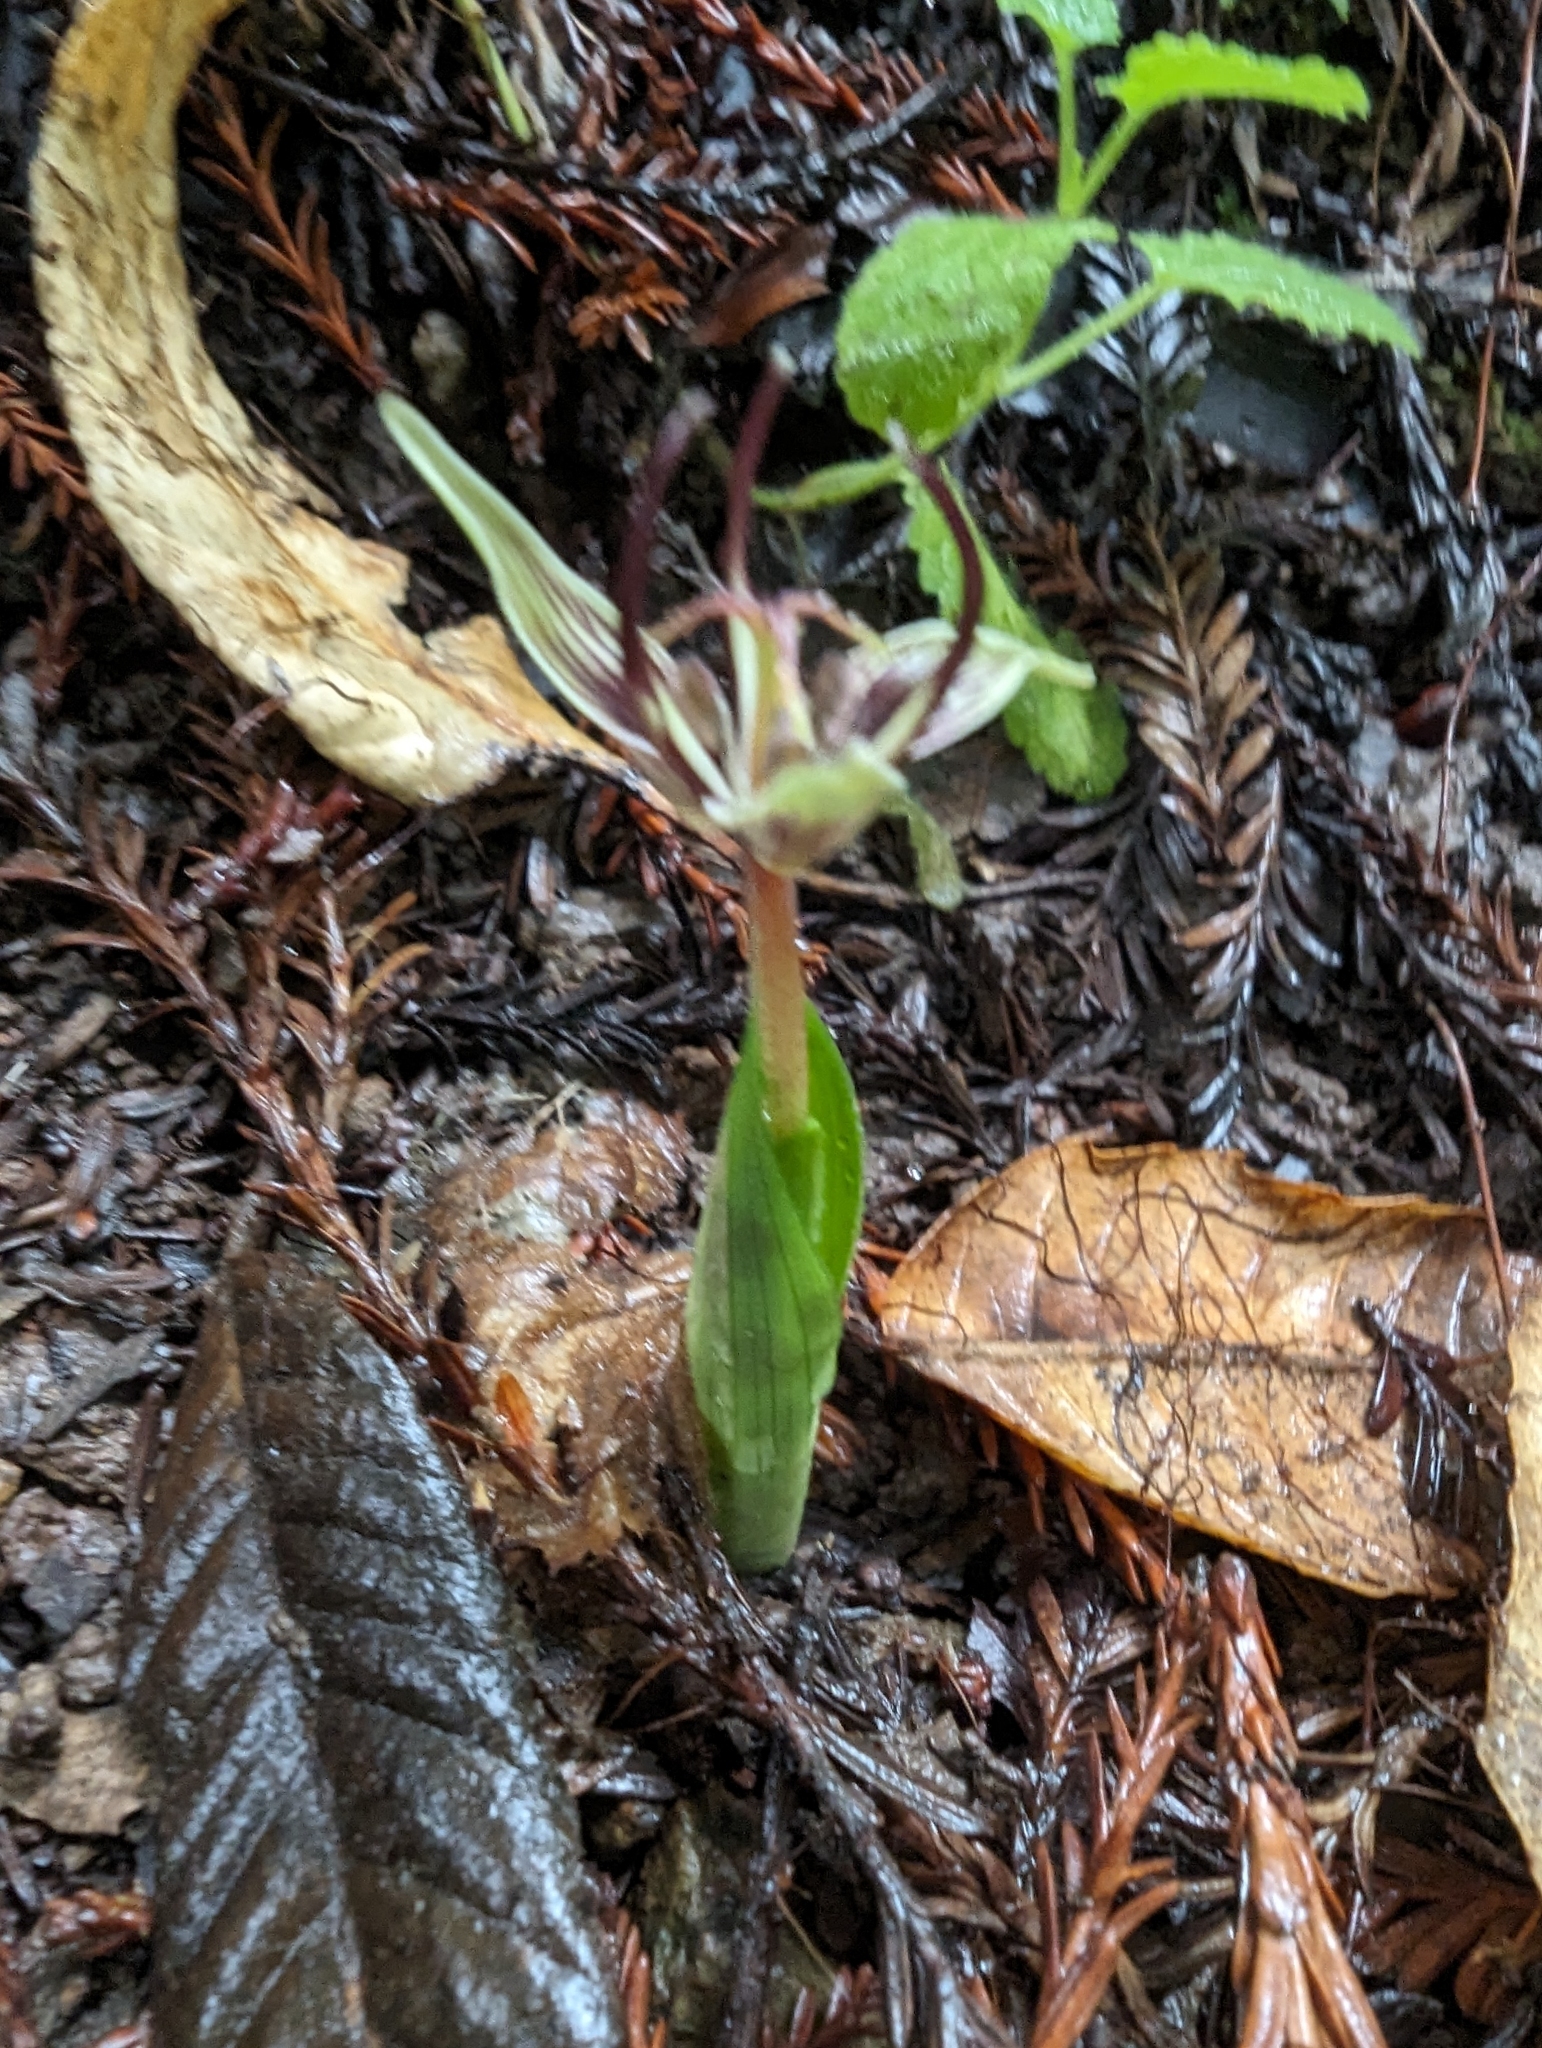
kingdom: Plantae
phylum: Tracheophyta
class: Liliopsida
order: Liliales
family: Liliaceae
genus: Scoliopus
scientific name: Scoliopus bigelovii
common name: Foetid adder's-tongue
